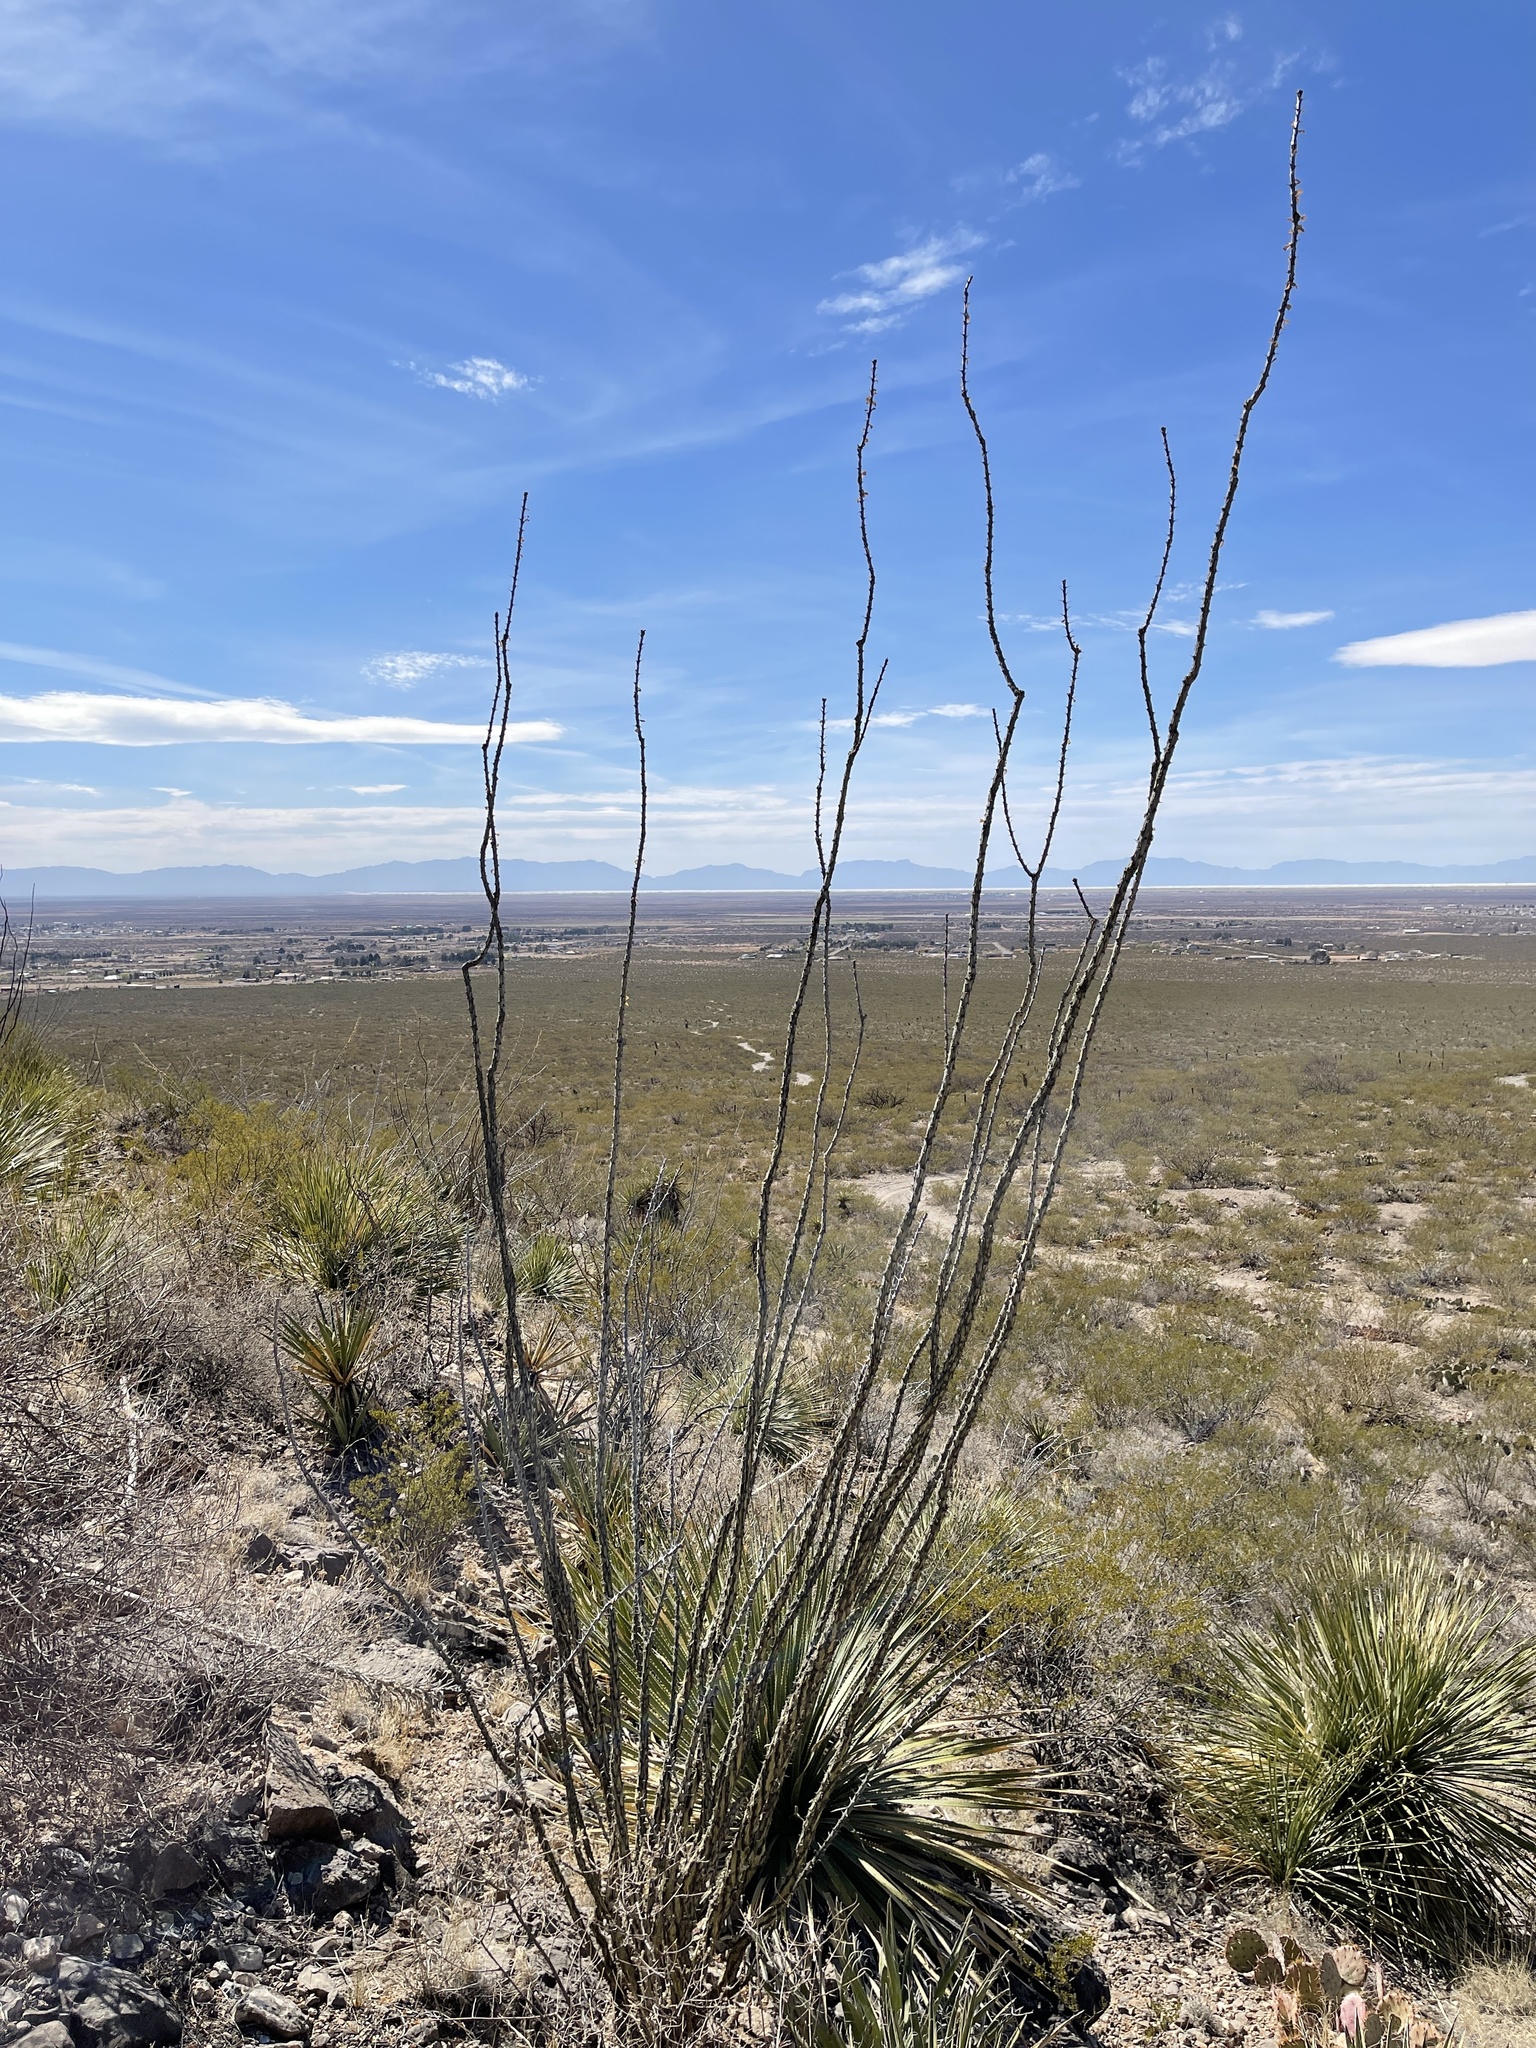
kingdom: Plantae
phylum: Tracheophyta
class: Magnoliopsida
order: Ericales
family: Fouquieriaceae
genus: Fouquieria
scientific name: Fouquieria splendens
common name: Vine-cactus
